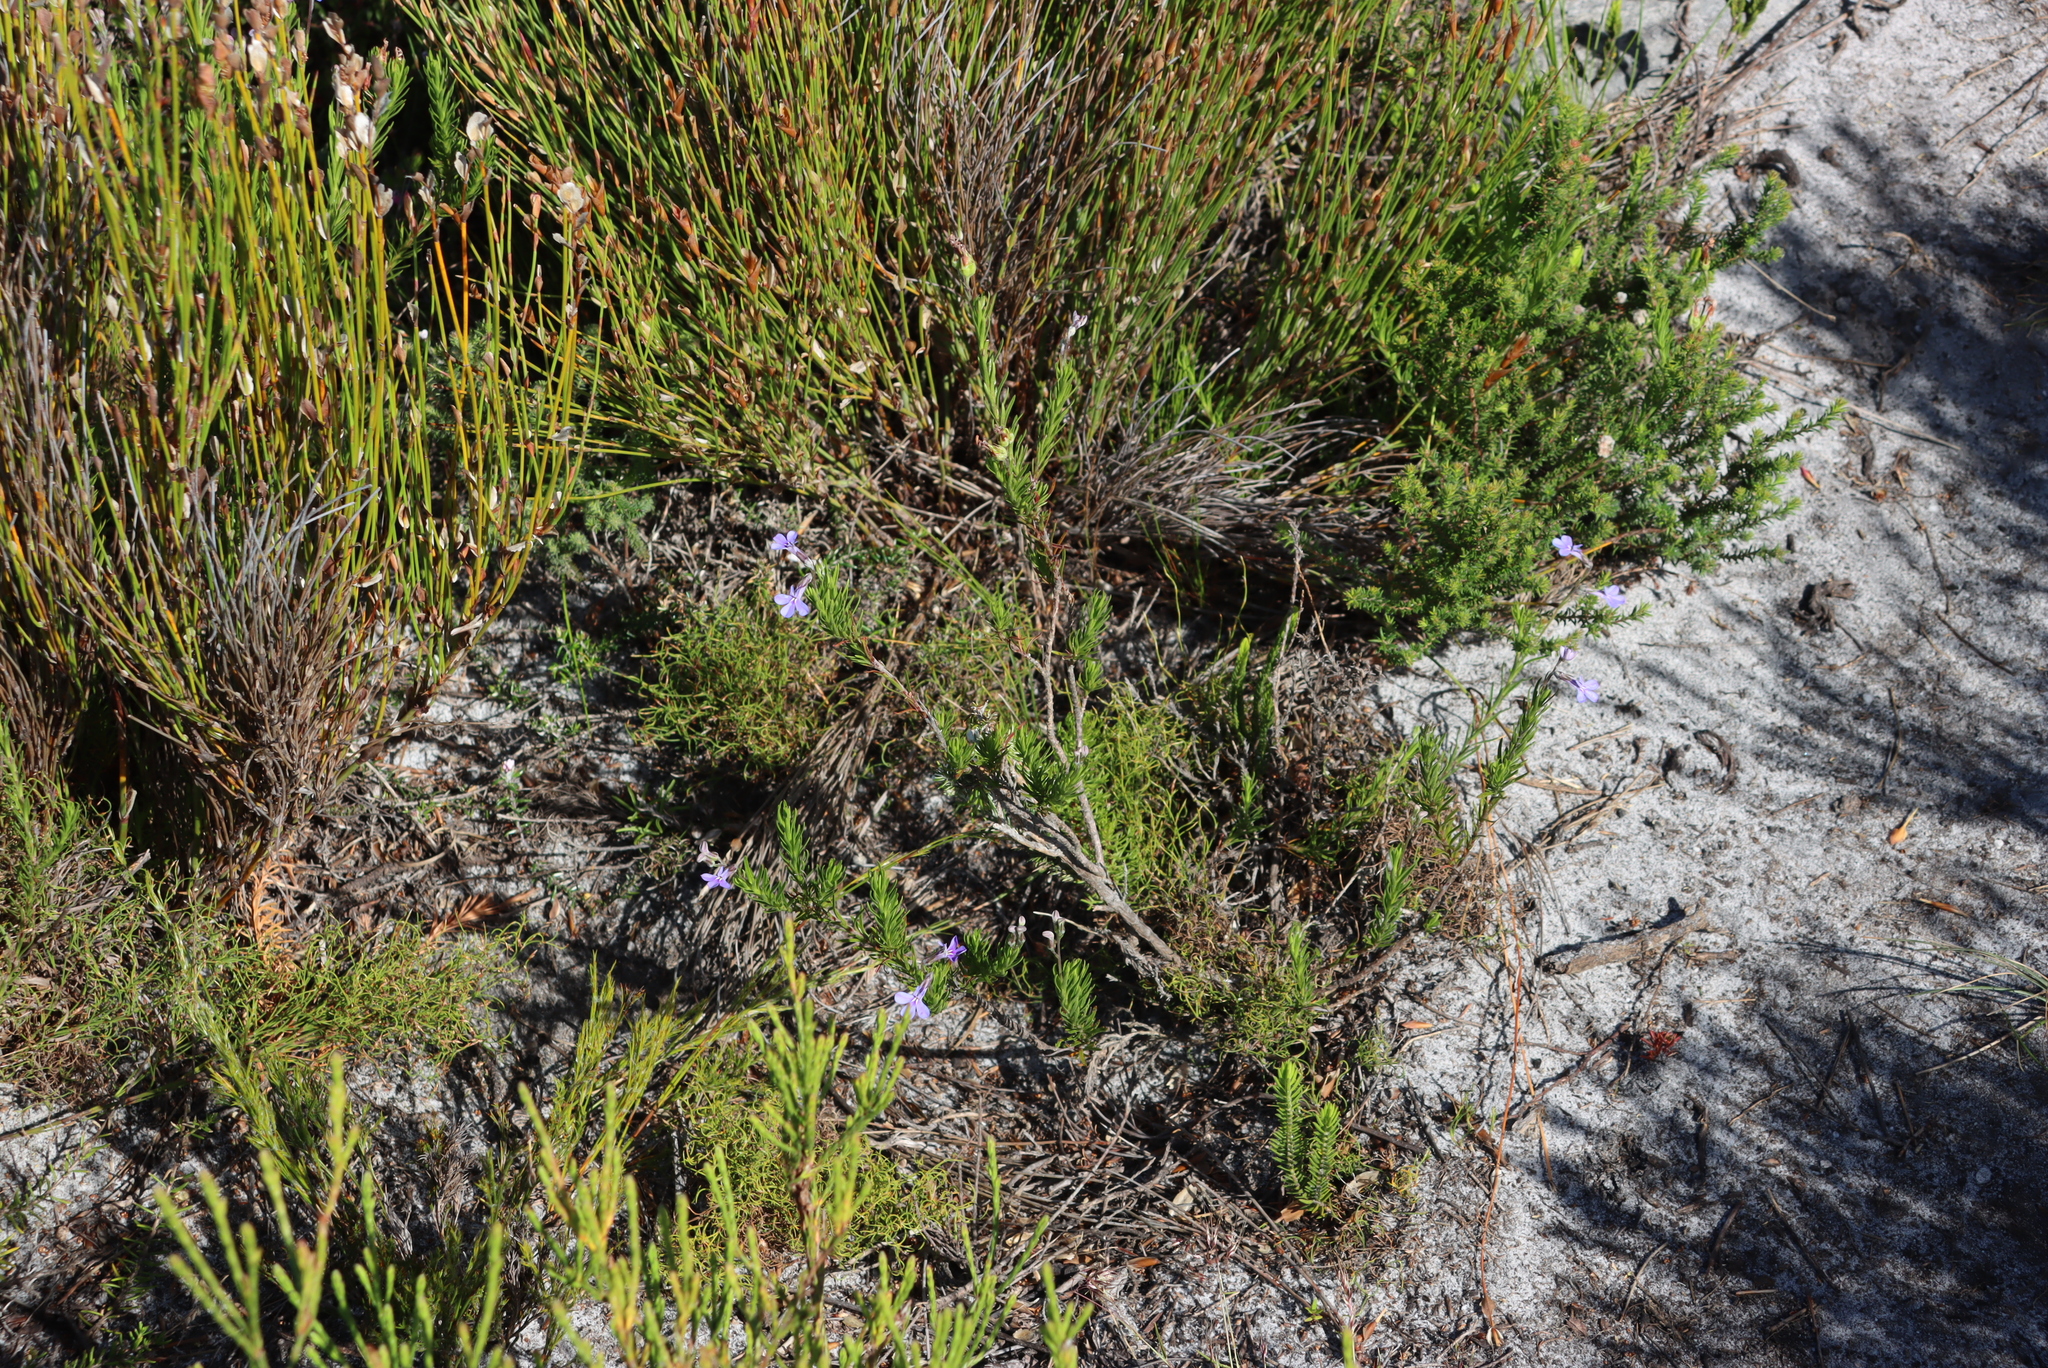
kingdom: Plantae
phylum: Tracheophyta
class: Magnoliopsida
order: Asterales
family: Campanulaceae
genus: Lobelia
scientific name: Lobelia pinifolia
